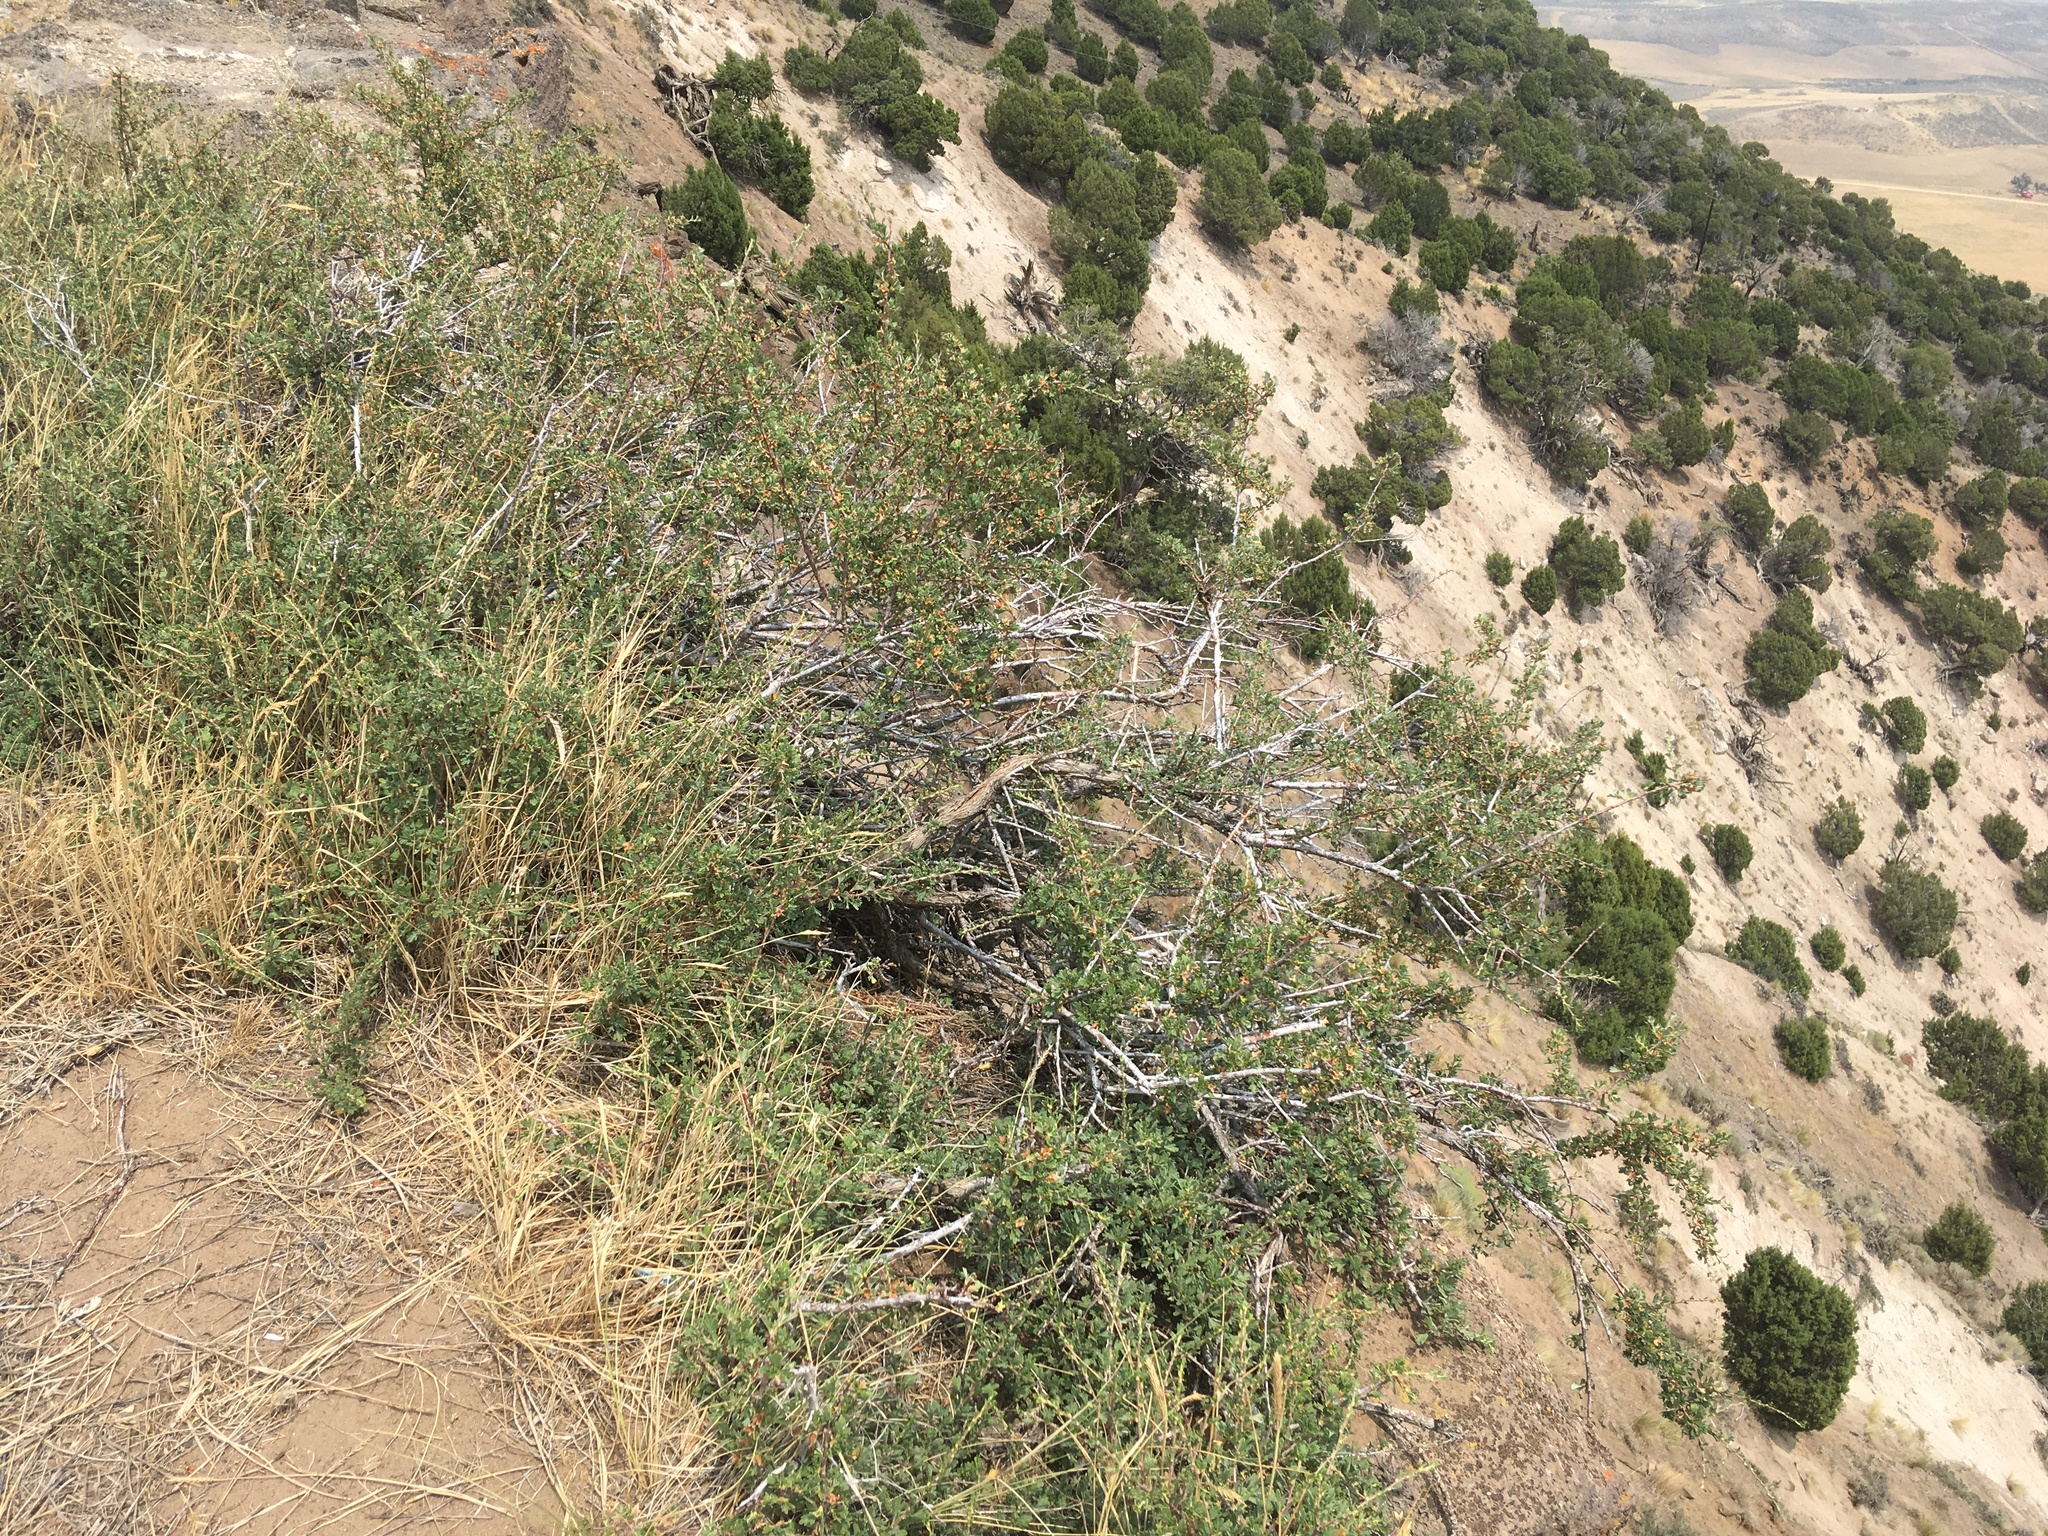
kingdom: Plantae
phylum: Tracheophyta
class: Magnoliopsida
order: Rosales
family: Rosaceae
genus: Purshia
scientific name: Purshia tridentata
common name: Antelope bitterbrush
